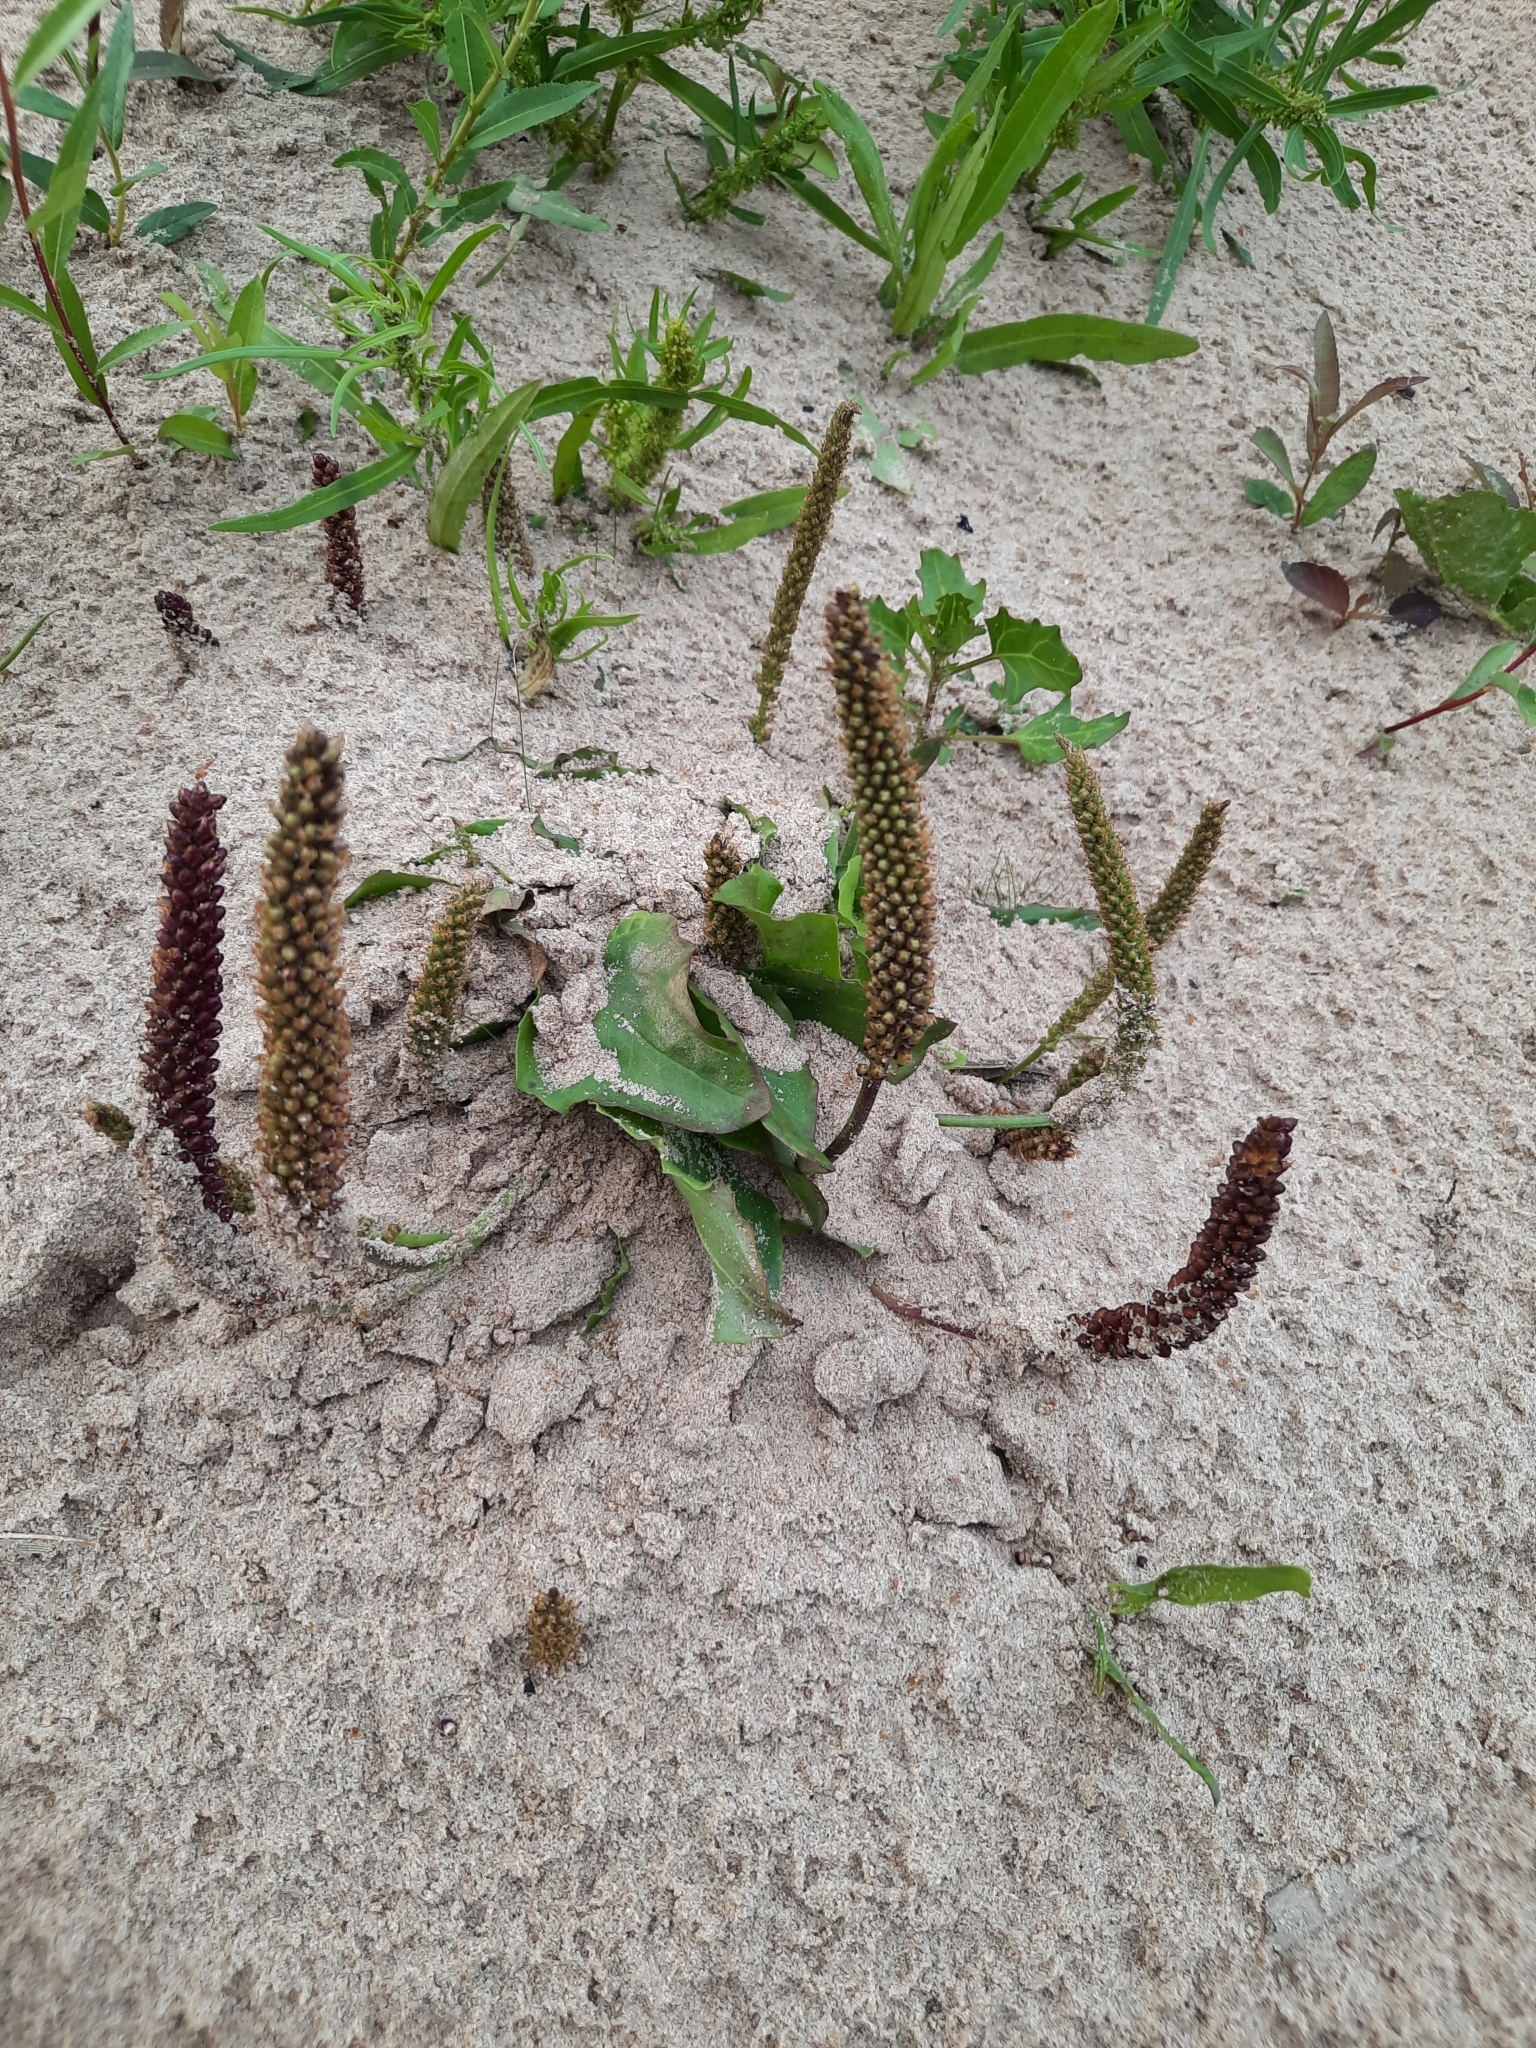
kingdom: Plantae
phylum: Tracheophyta
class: Magnoliopsida
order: Lamiales
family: Plantaginaceae
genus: Plantago
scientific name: Plantago major
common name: Common plantain
